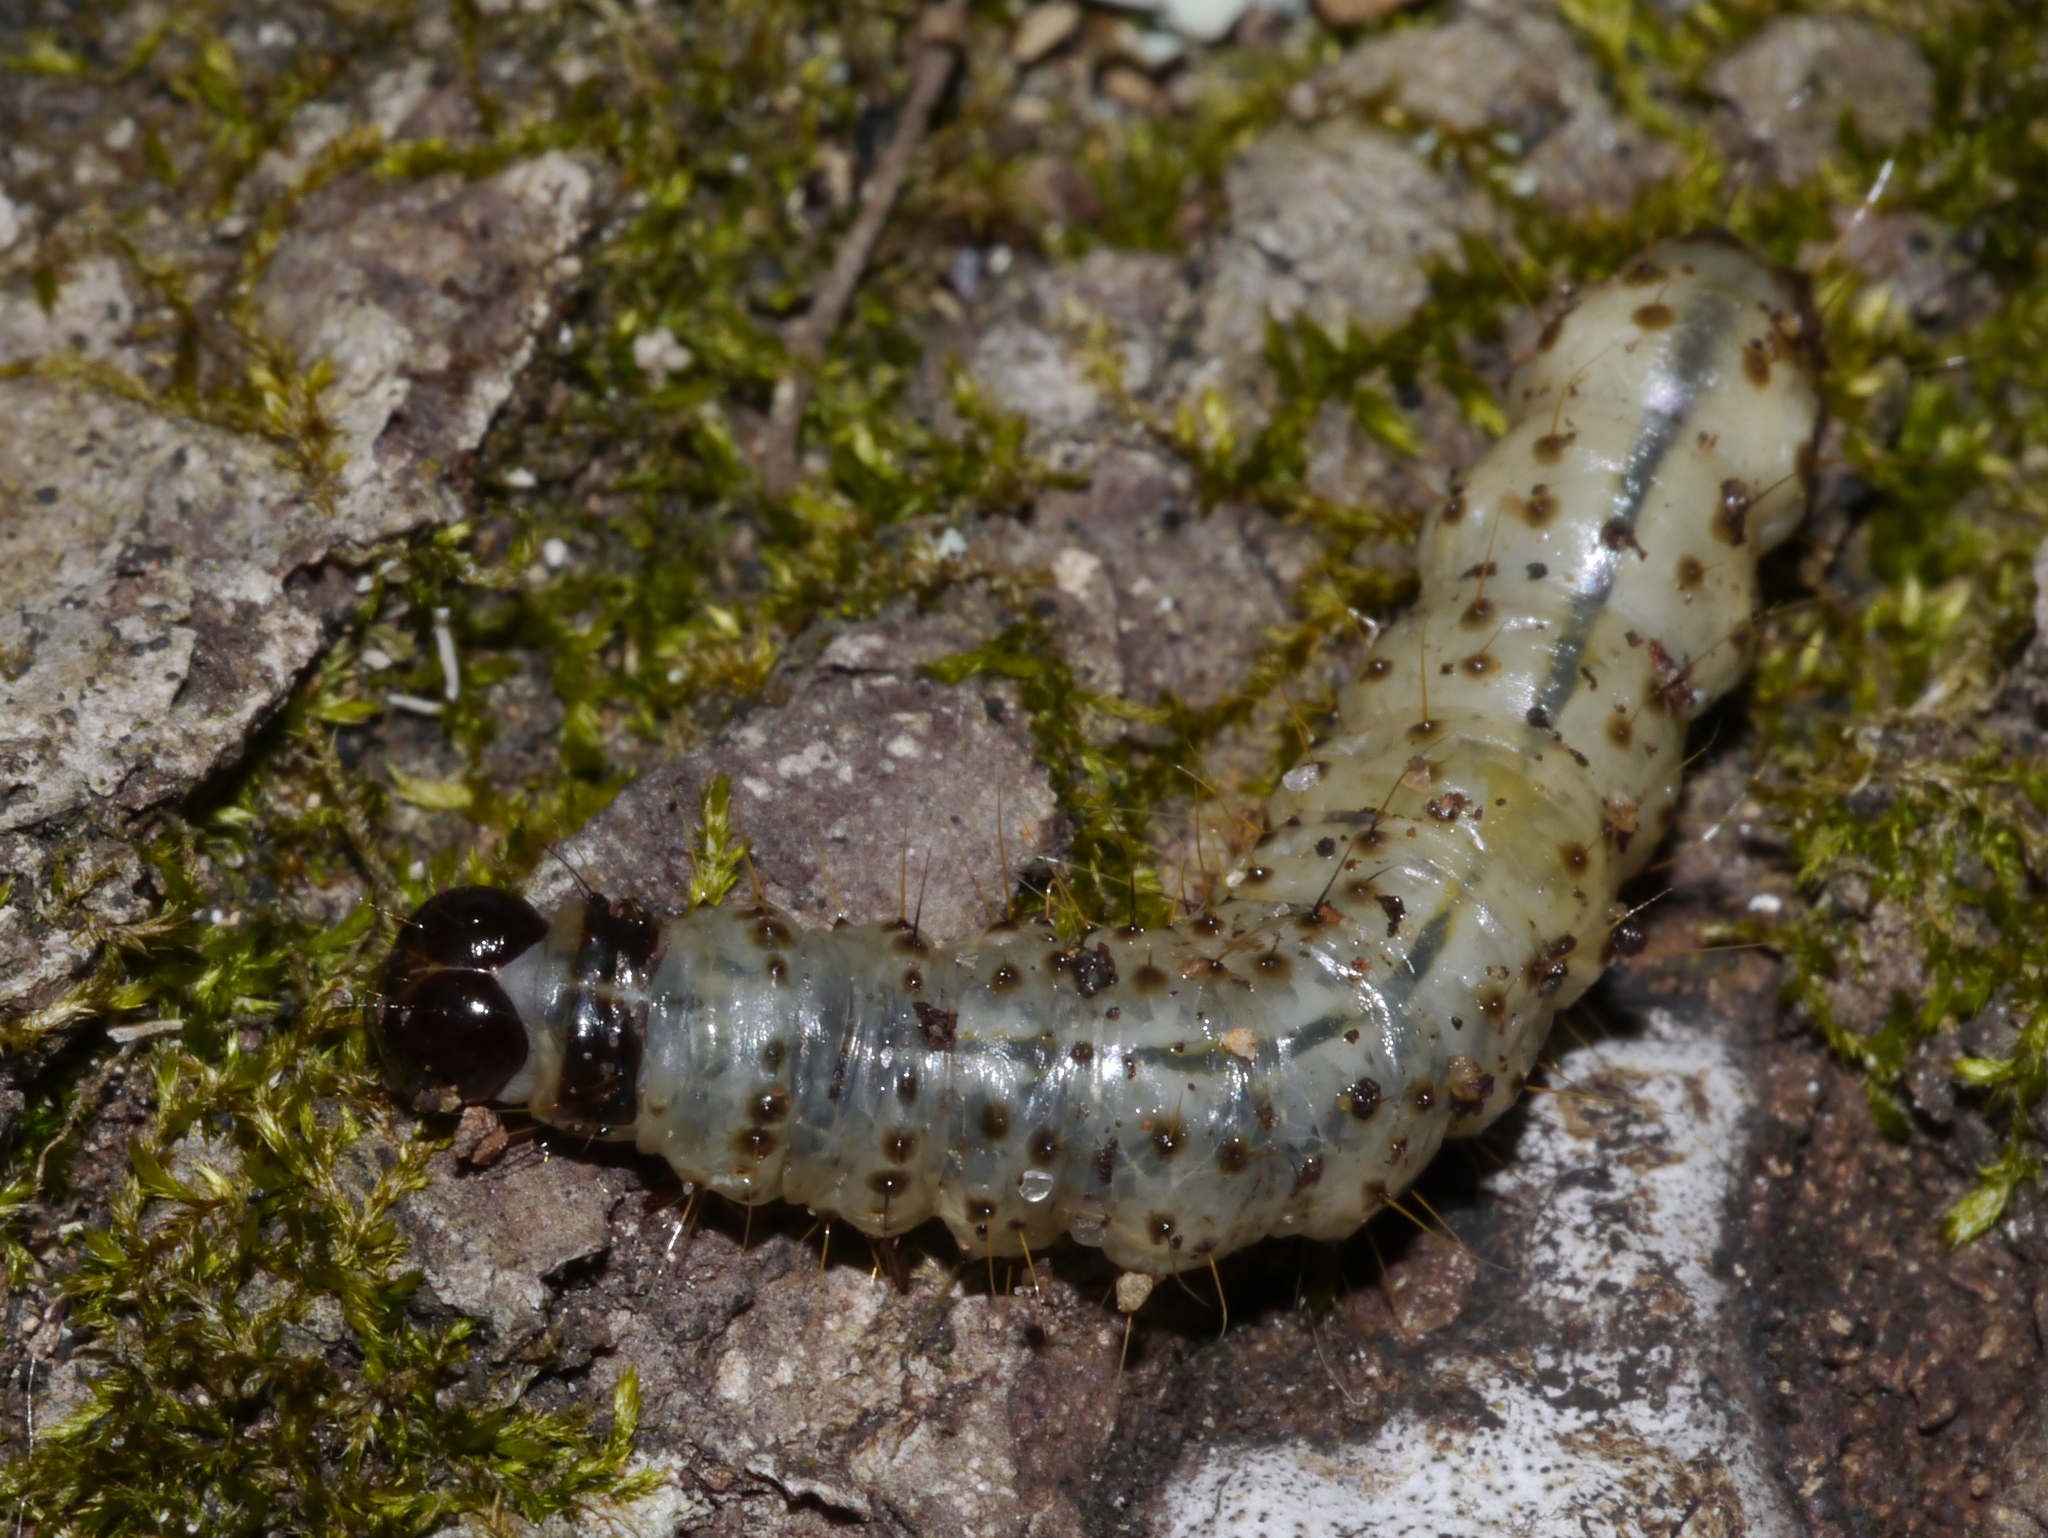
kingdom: Animalia
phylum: Arthropoda
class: Insecta
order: Lepidoptera
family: Erebidae
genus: Scolecocampa
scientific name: Scolecocampa liburna
